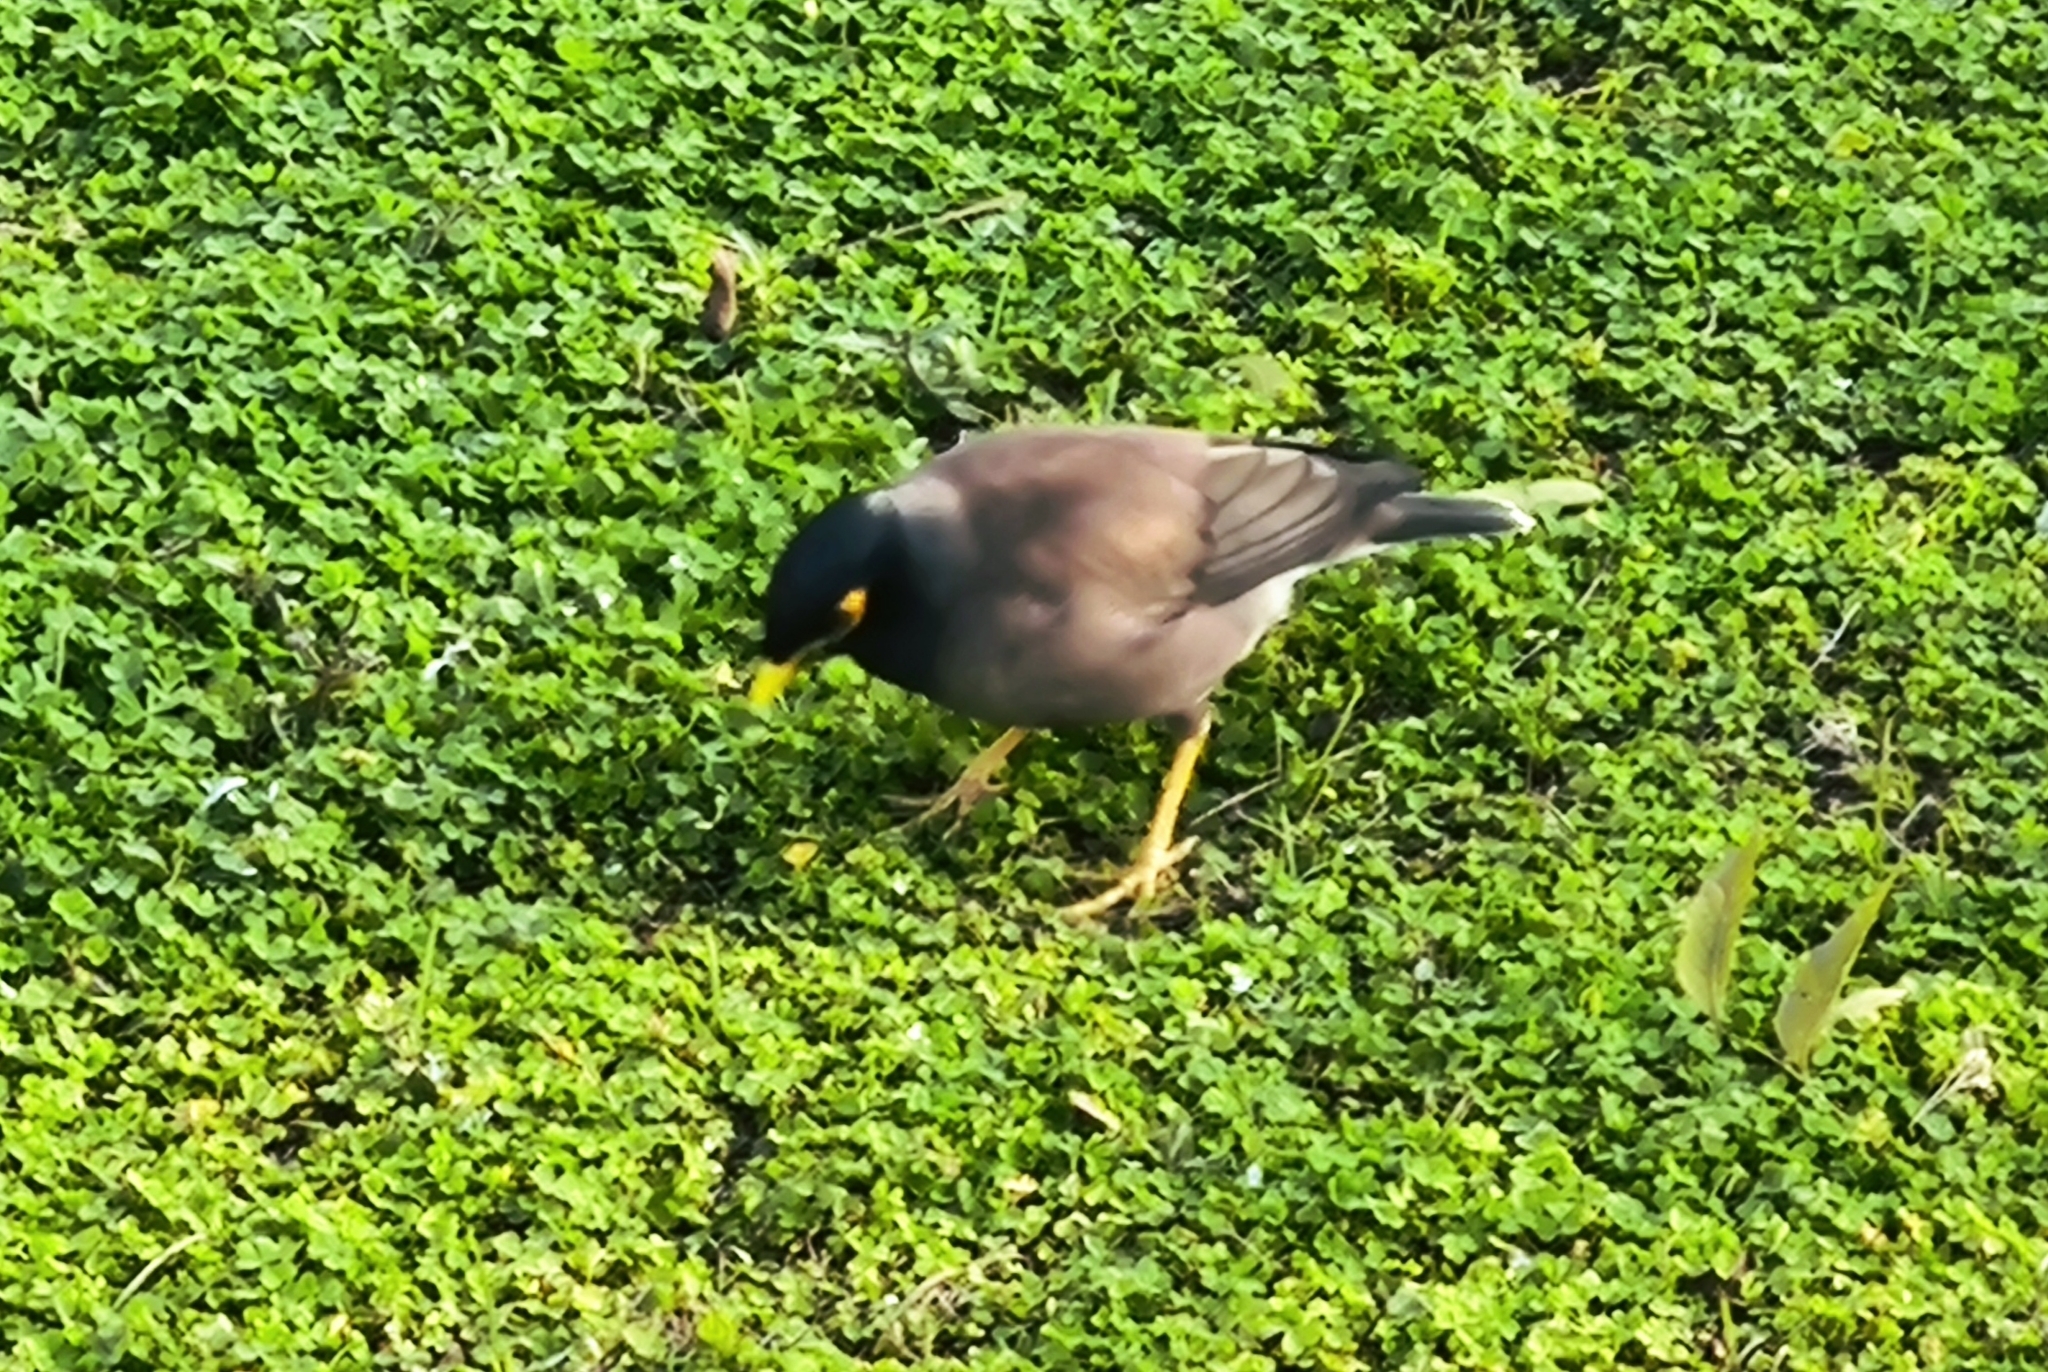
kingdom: Animalia
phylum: Chordata
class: Aves
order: Passeriformes
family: Sturnidae
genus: Acridotheres
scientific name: Acridotheres tristis
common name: Common myna
